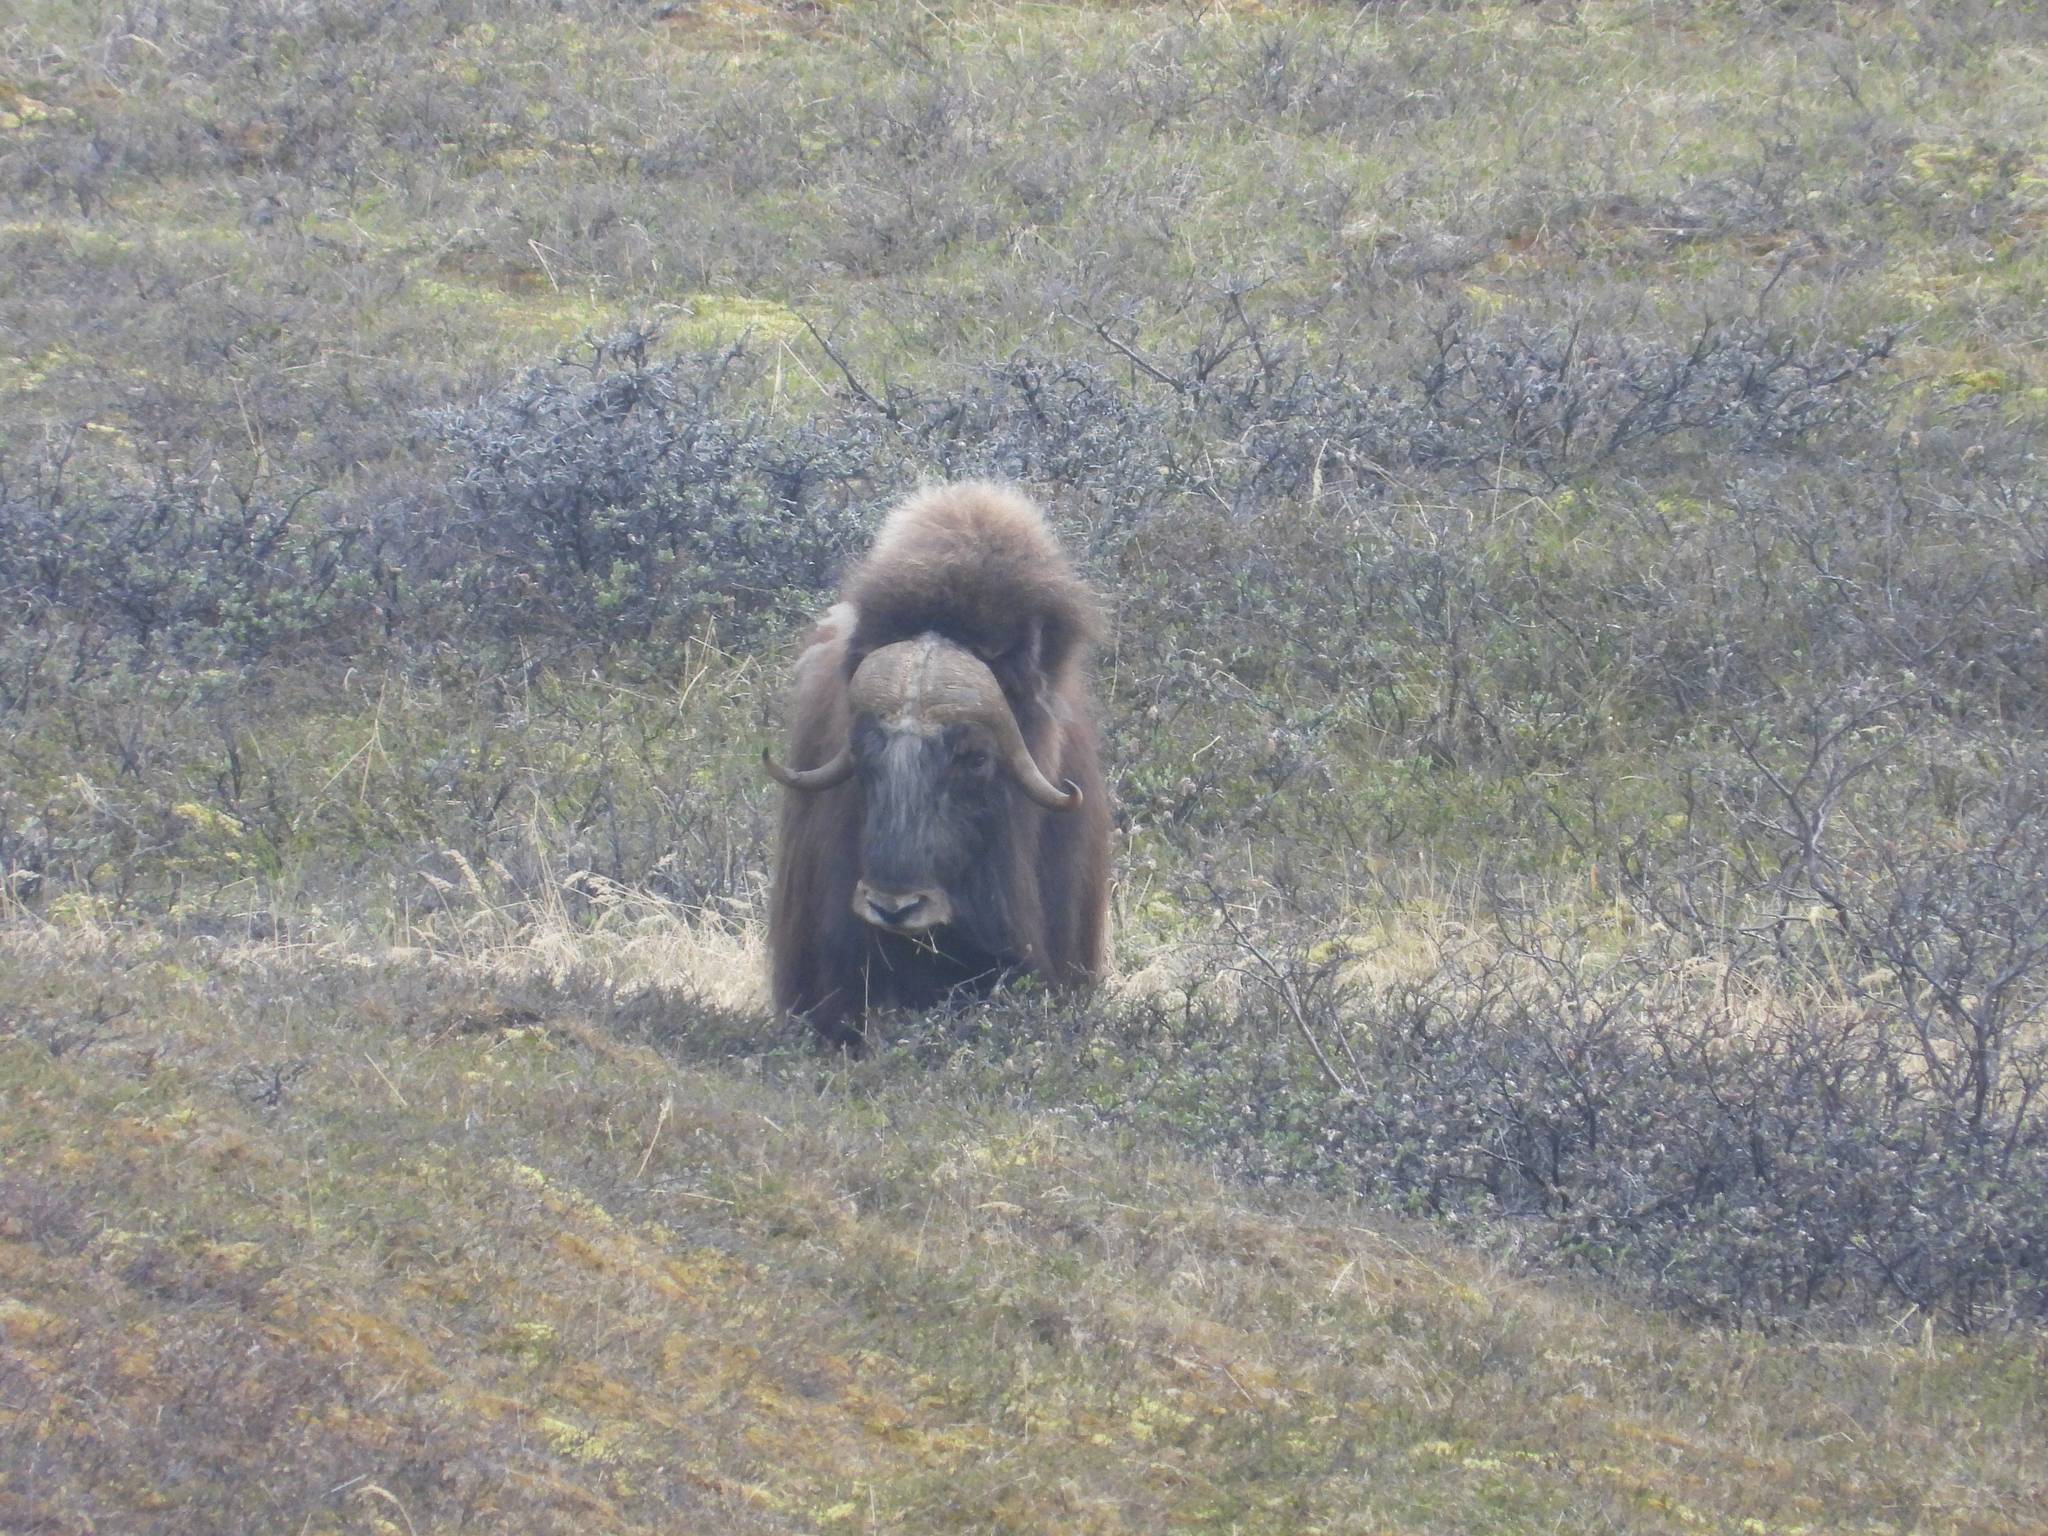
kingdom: Animalia
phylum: Chordata
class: Mammalia
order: Artiodactyla
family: Bovidae
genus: Ovibos
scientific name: Ovibos moschatus
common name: Muskox
